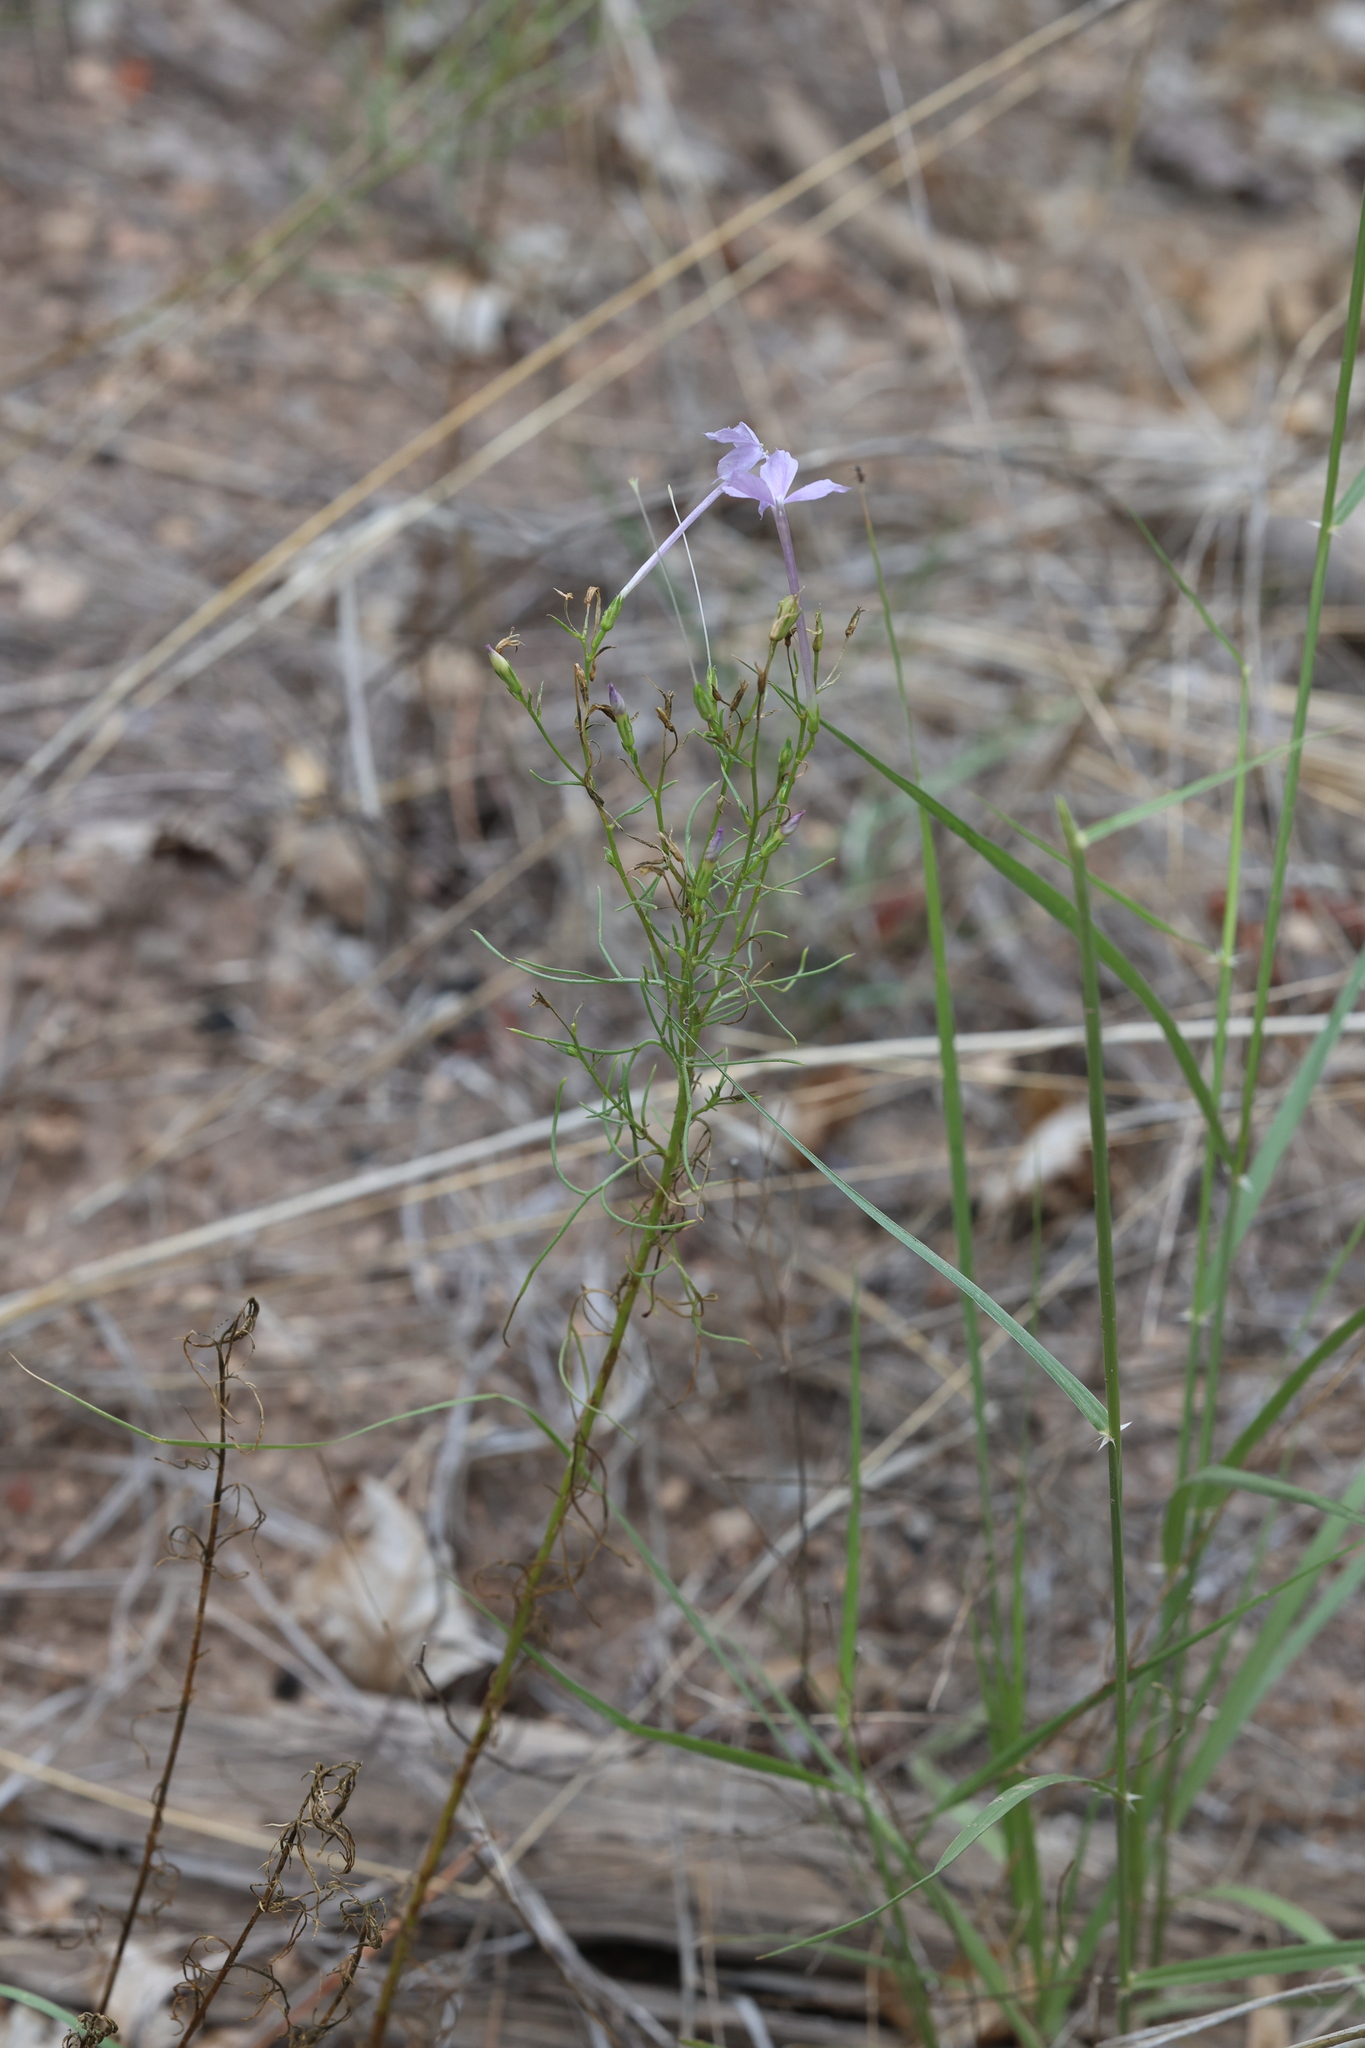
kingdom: Plantae
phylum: Tracheophyta
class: Magnoliopsida
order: Ericales
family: Polemoniaceae
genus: Ipomopsis
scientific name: Ipomopsis longiflora
